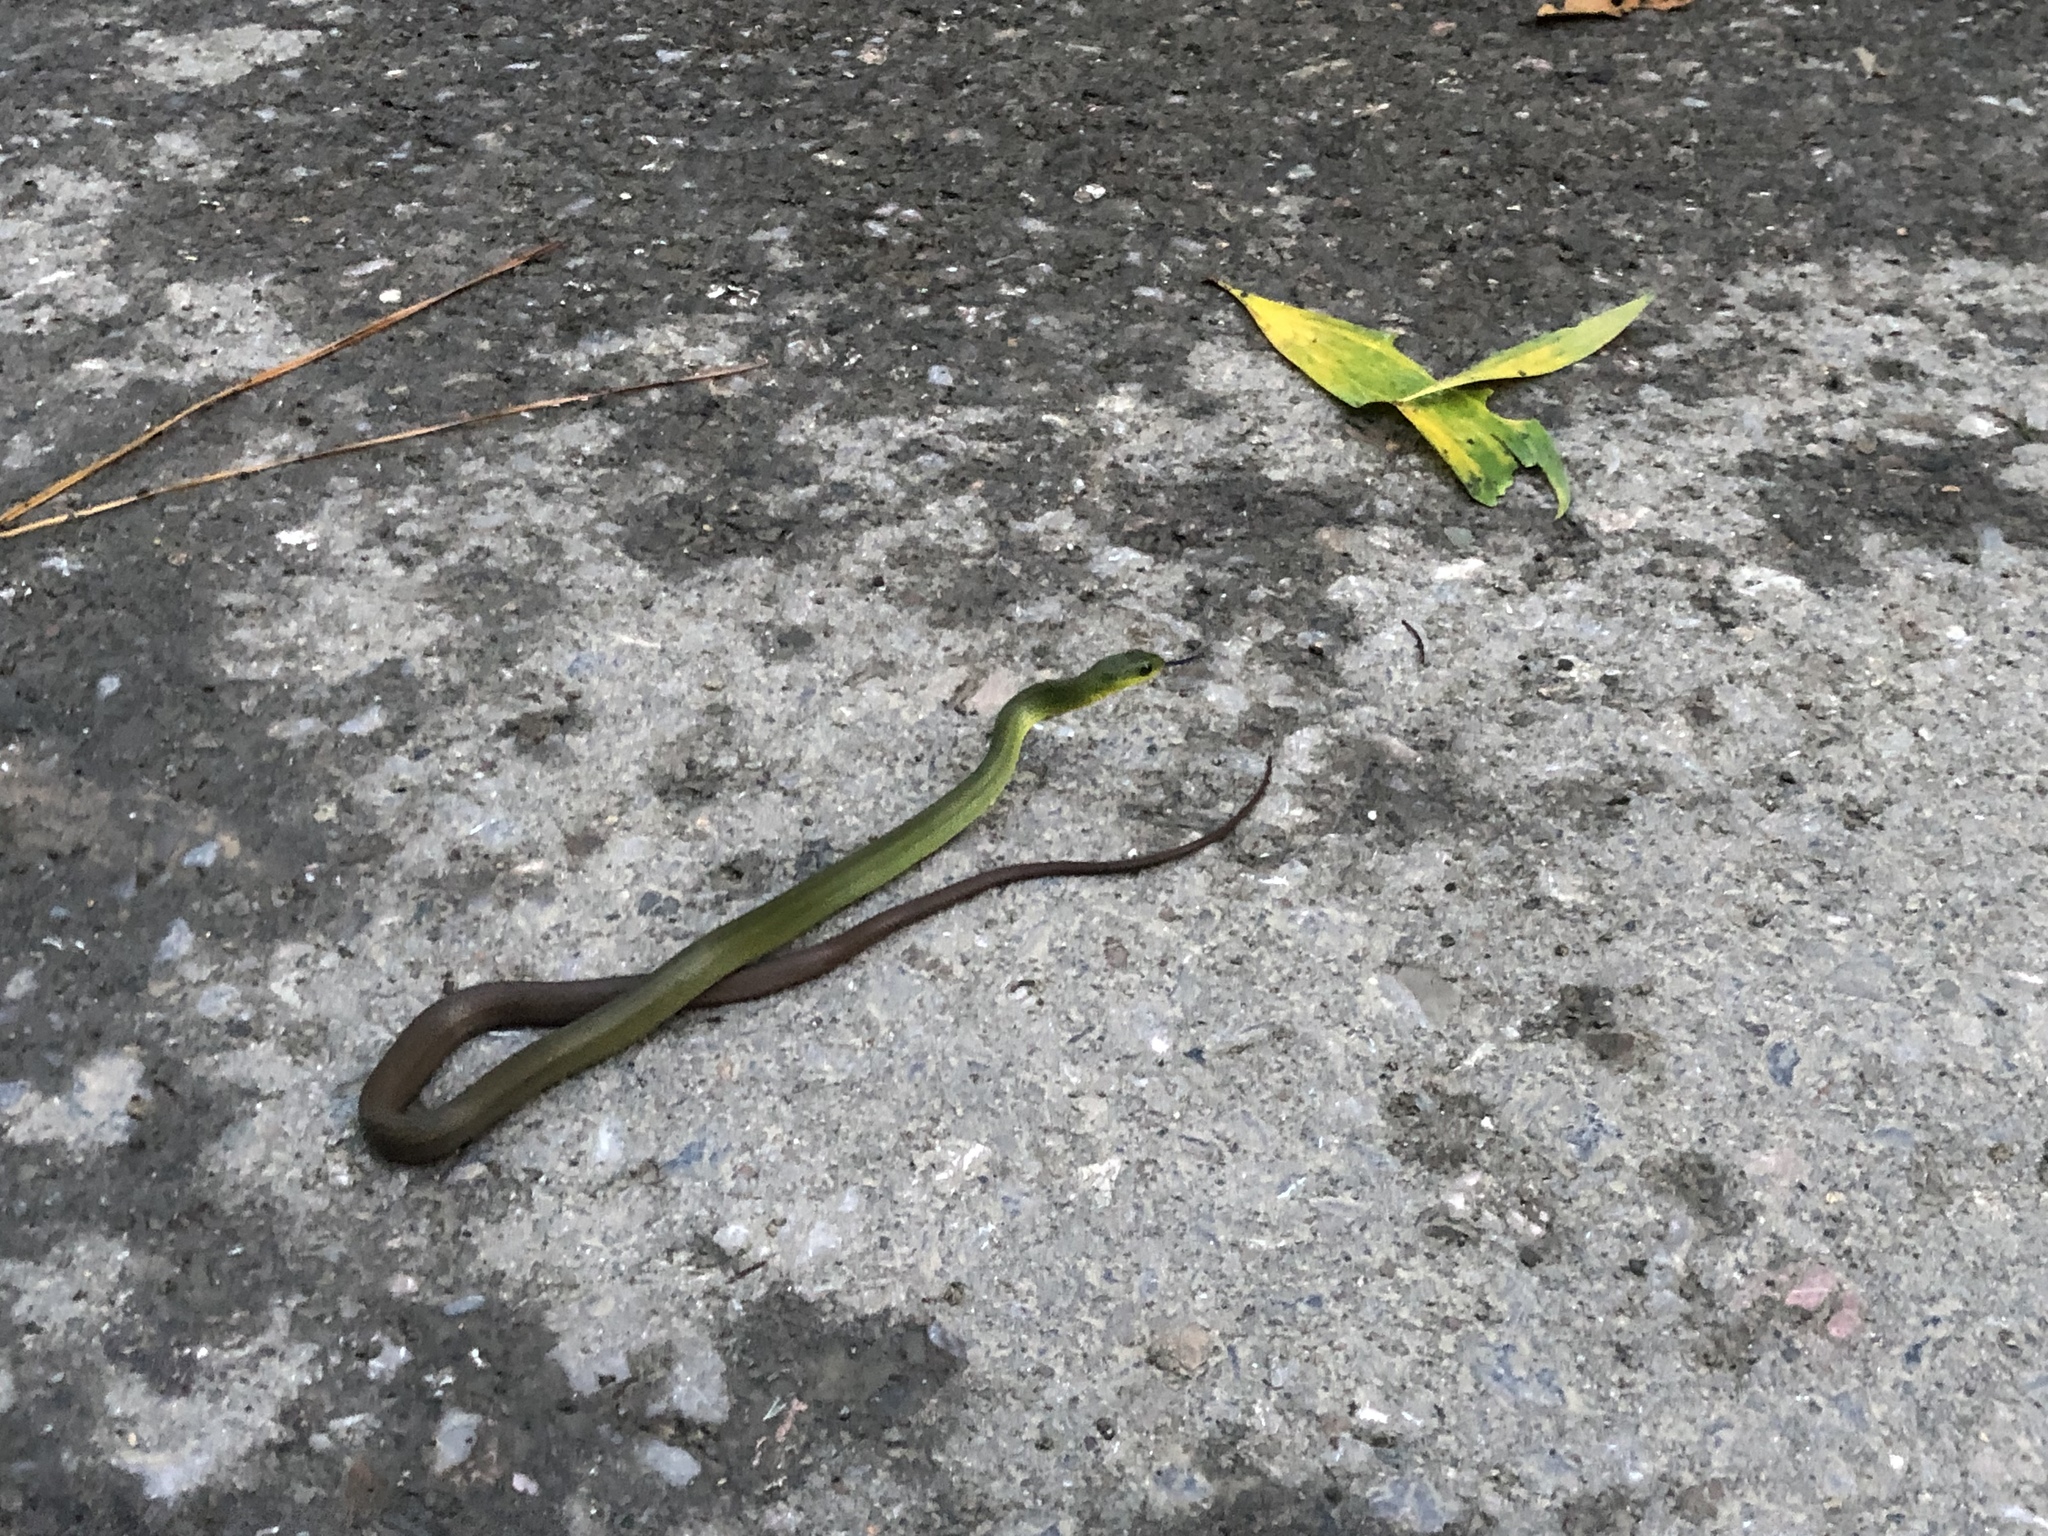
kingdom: Animalia
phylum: Chordata
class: Squamata
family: Colubridae
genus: Ptyas
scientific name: Ptyas multicincta
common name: Many-banded green snake
